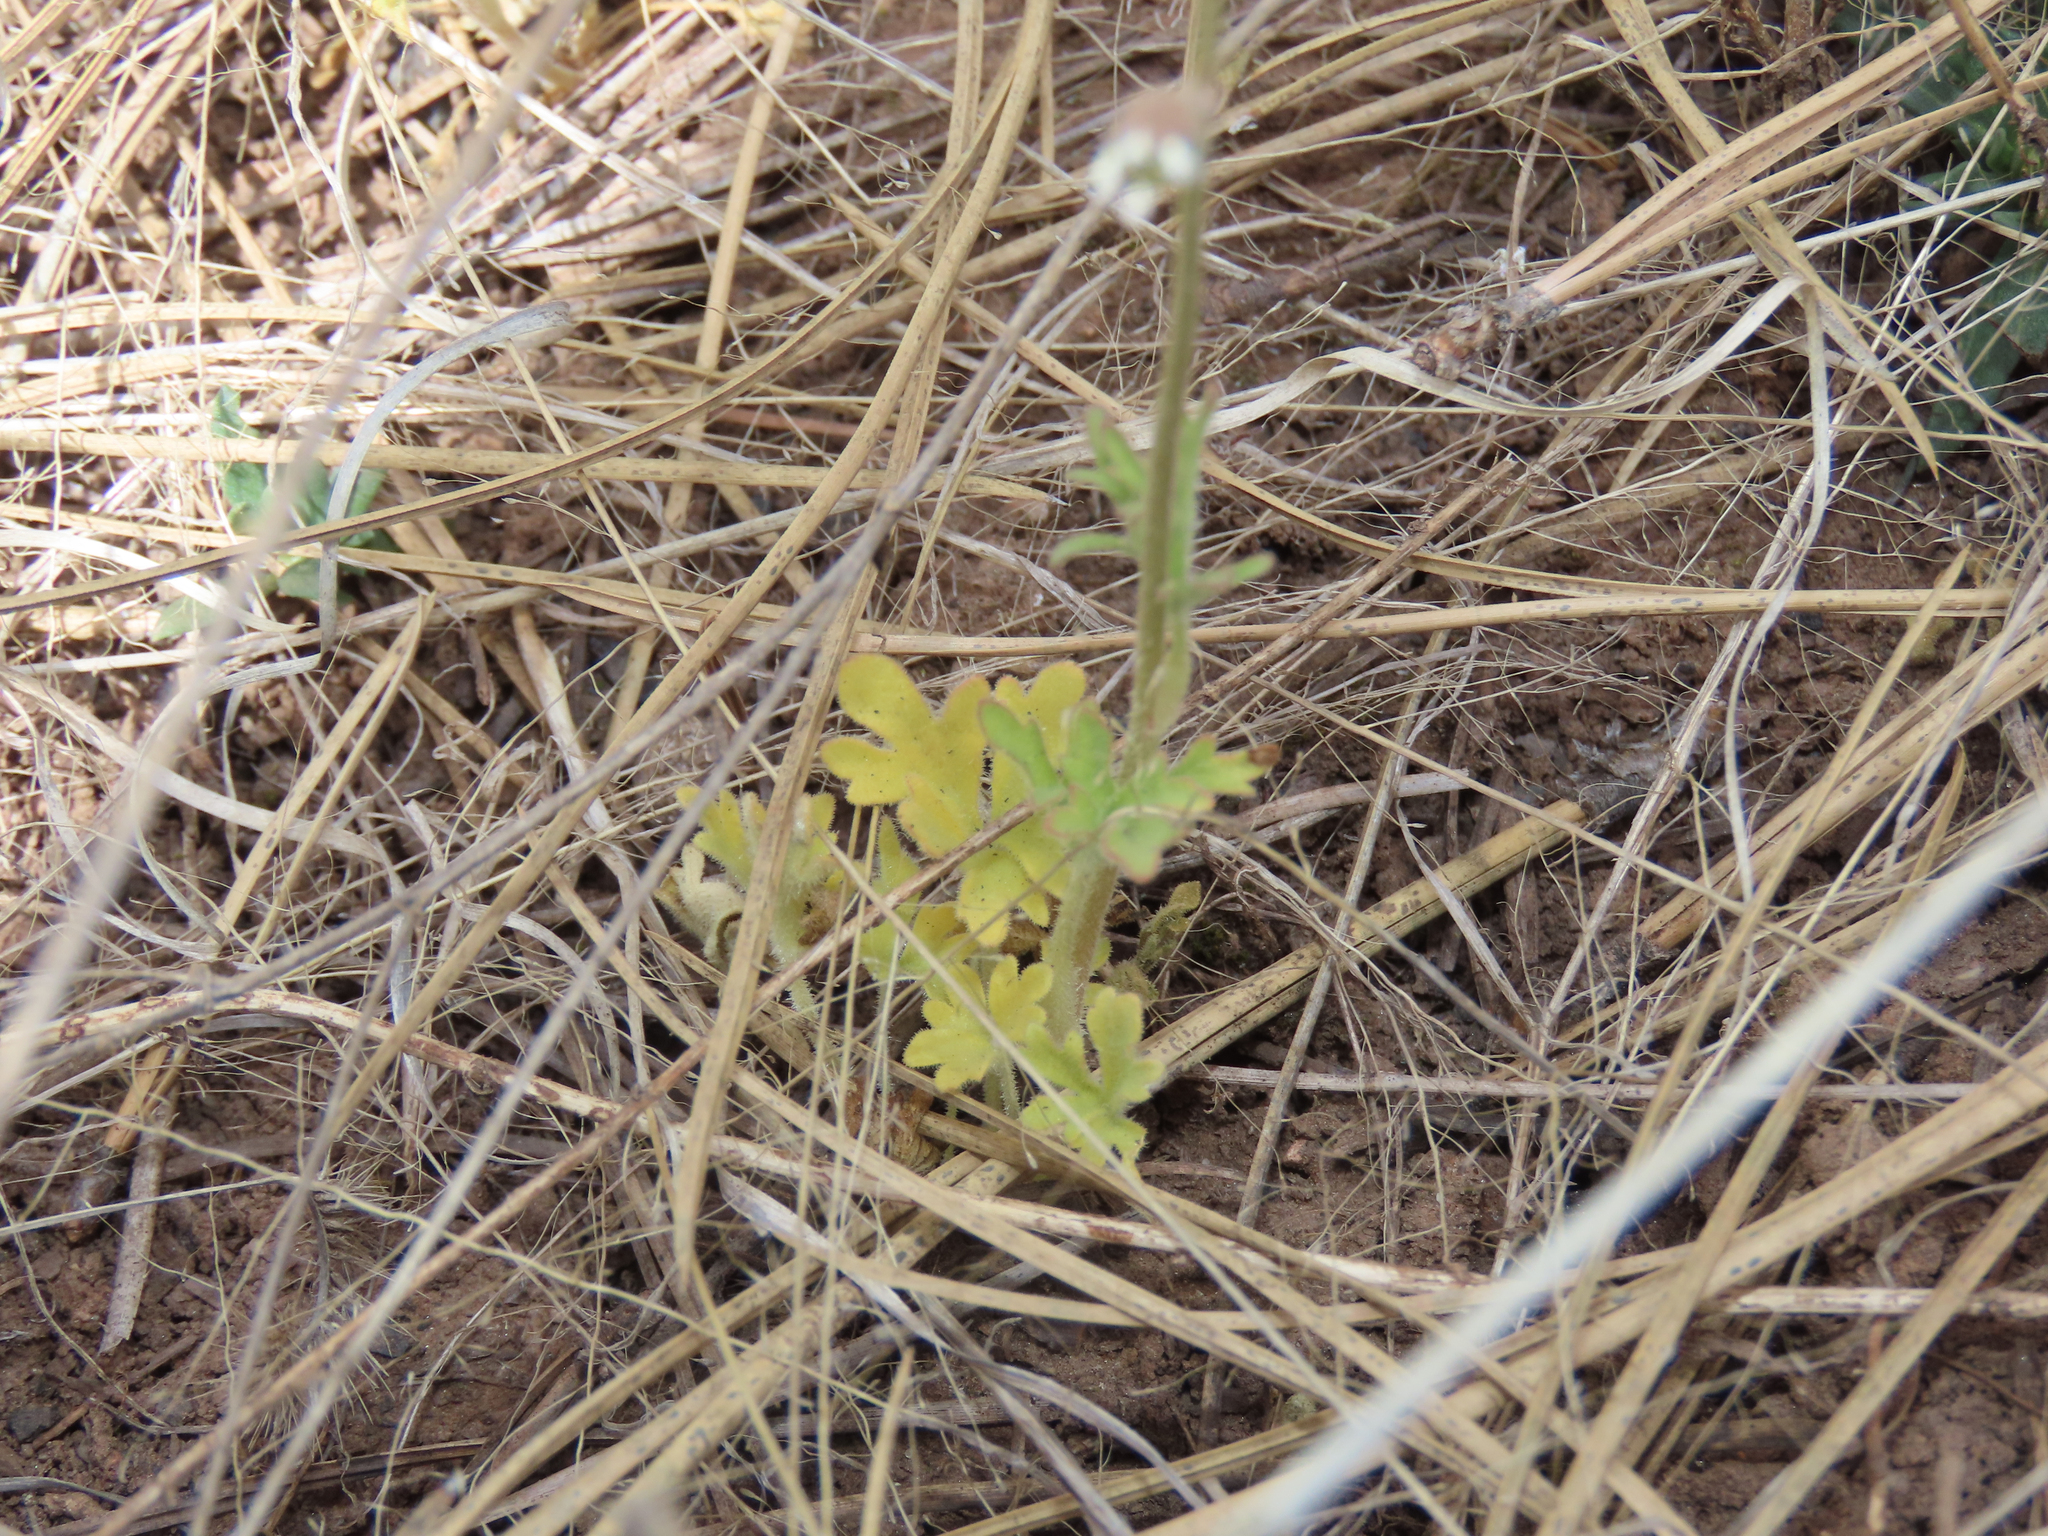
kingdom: Plantae
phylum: Tracheophyta
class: Magnoliopsida
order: Saxifragales
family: Saxifragaceae
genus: Lithophragma
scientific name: Lithophragma tenella
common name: Slender fringe-cup
